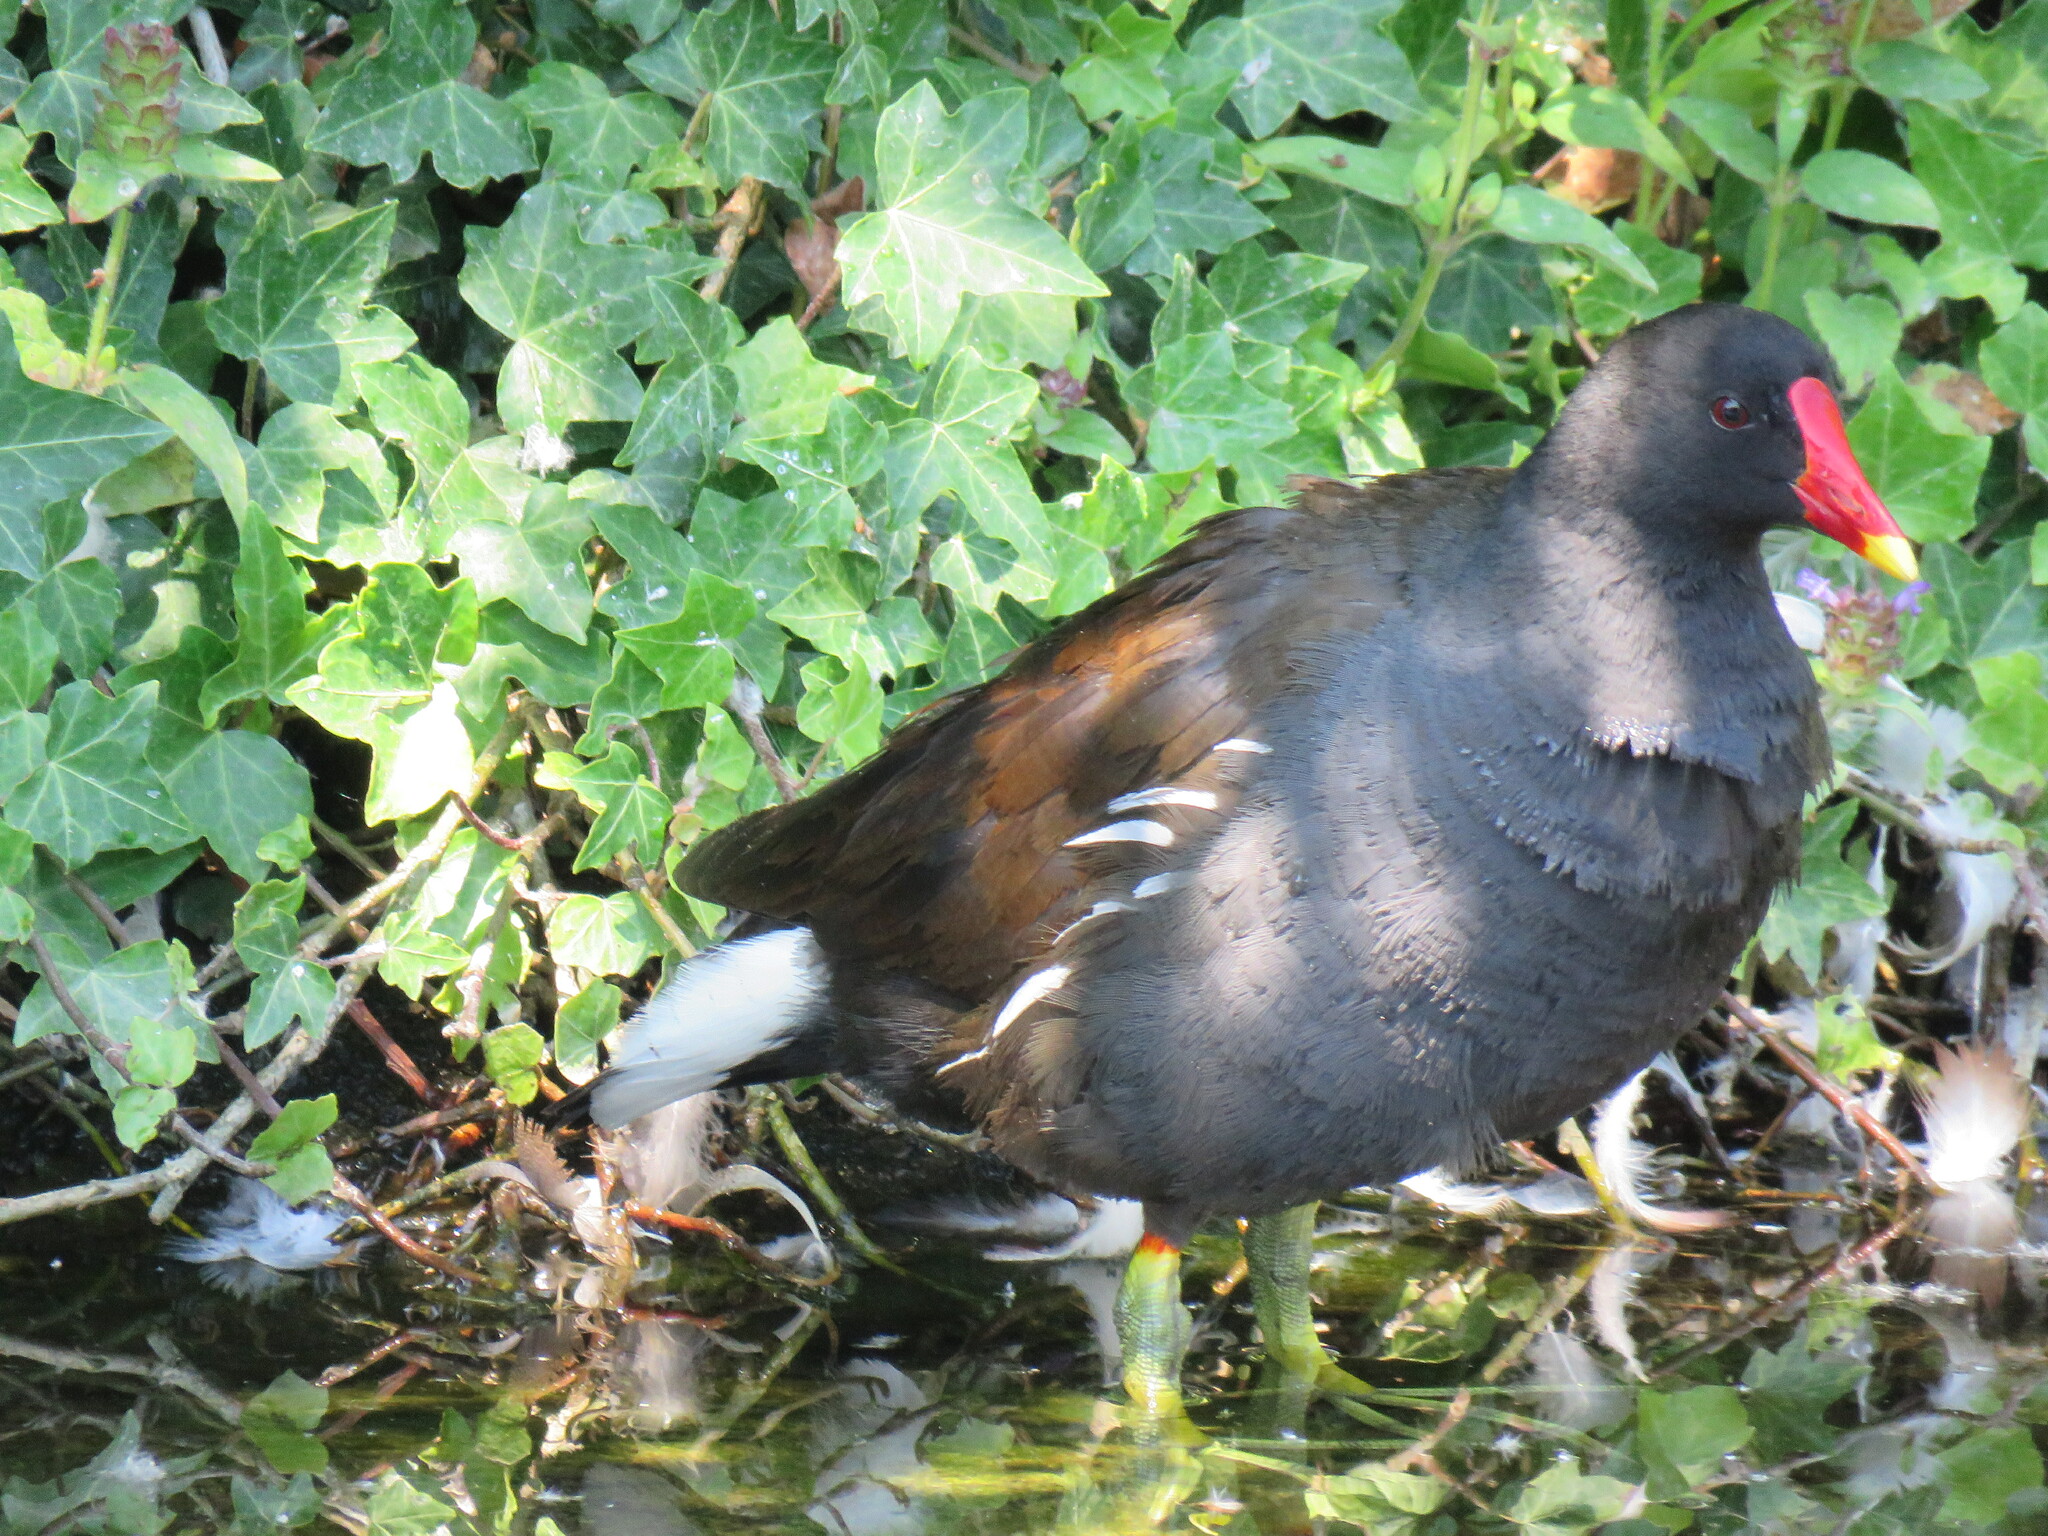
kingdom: Animalia
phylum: Chordata
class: Aves
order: Gruiformes
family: Rallidae
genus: Gallinula
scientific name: Gallinula chloropus
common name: Common moorhen
